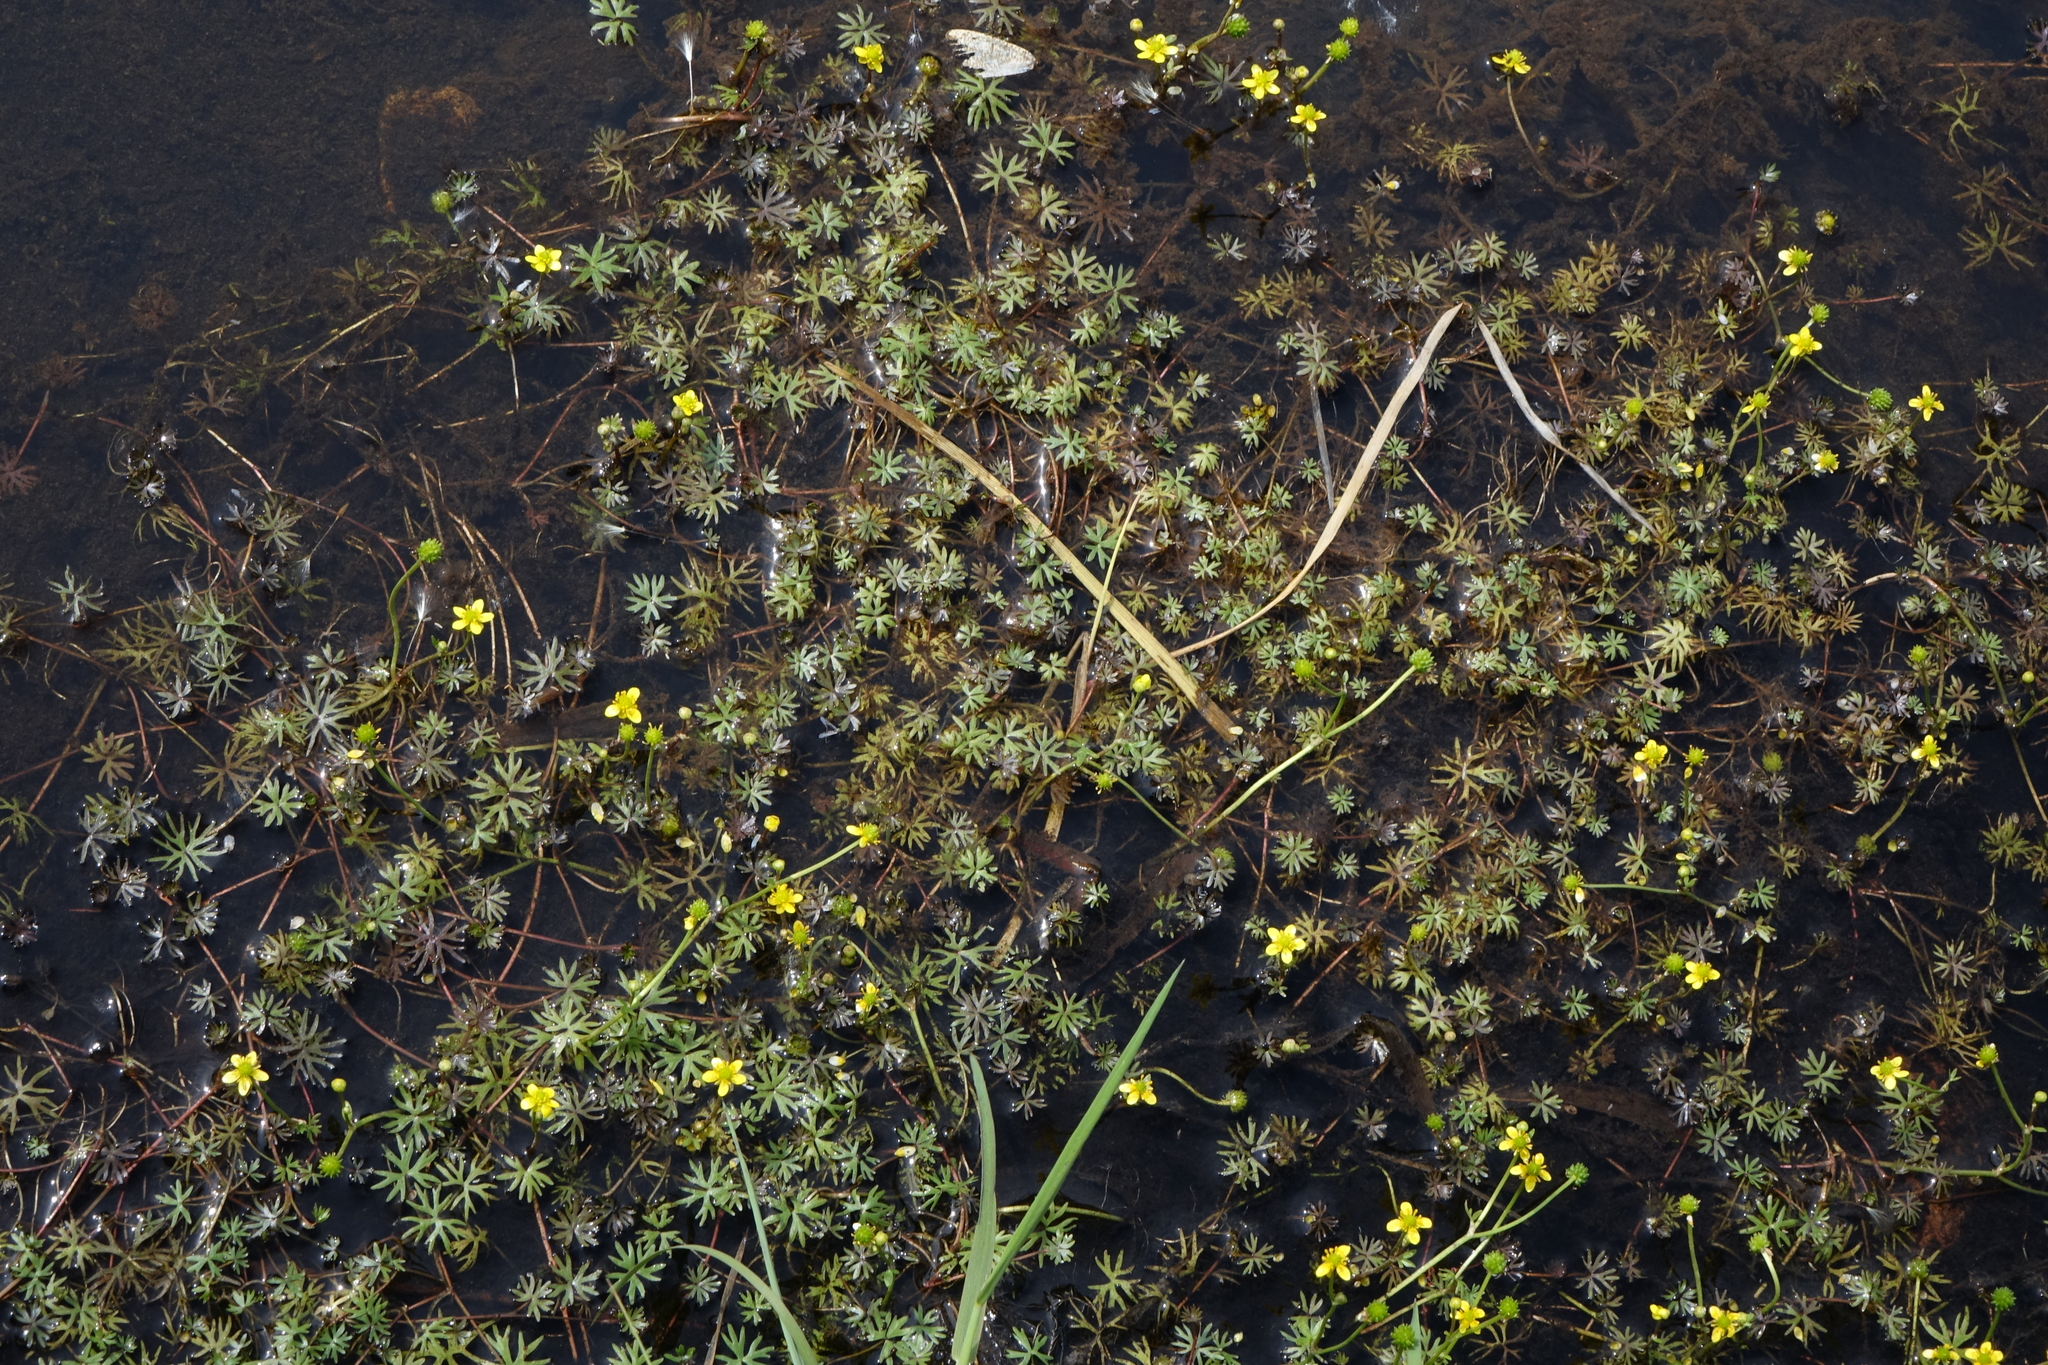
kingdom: Plantae
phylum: Tracheophyta
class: Magnoliopsida
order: Ranunculales
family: Ranunculaceae
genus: Ranunculus
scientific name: Ranunculus gmelinii
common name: Gmelin's buttercup
